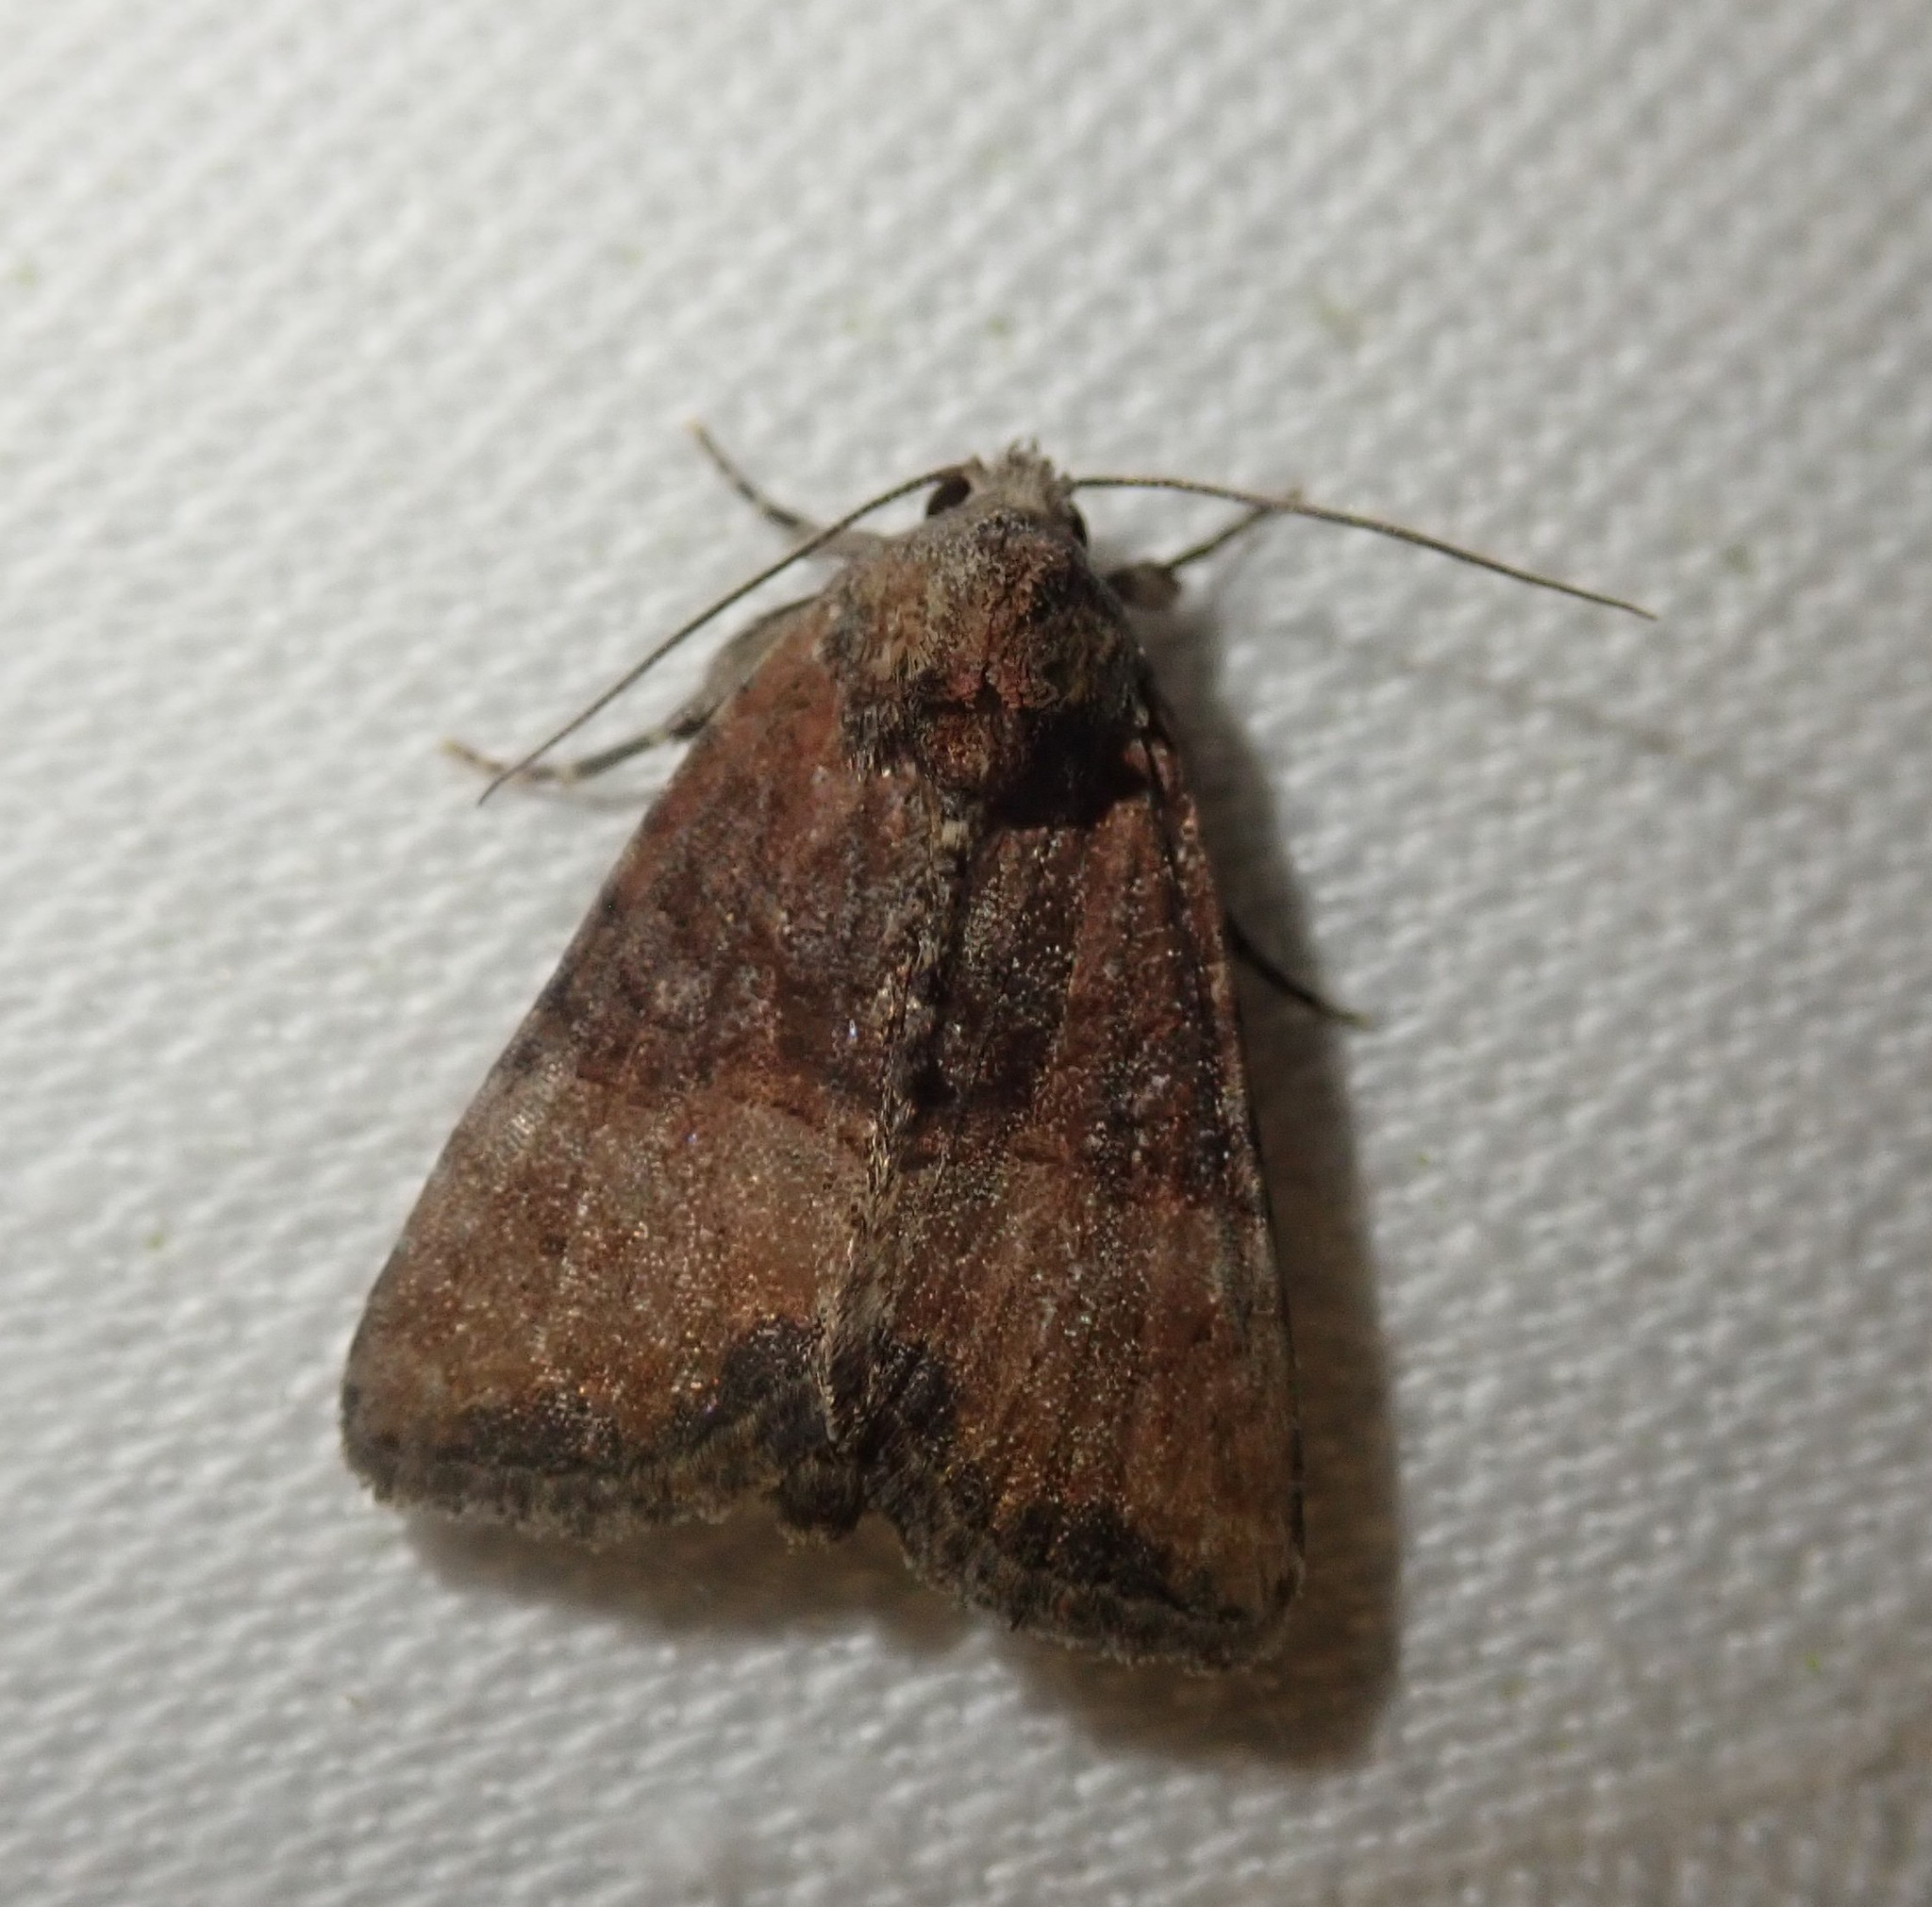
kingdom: Animalia
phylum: Arthropoda
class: Insecta
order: Lepidoptera
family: Noctuidae
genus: Mesoligia
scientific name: Mesoligia furuncula
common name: Cloaked minor
